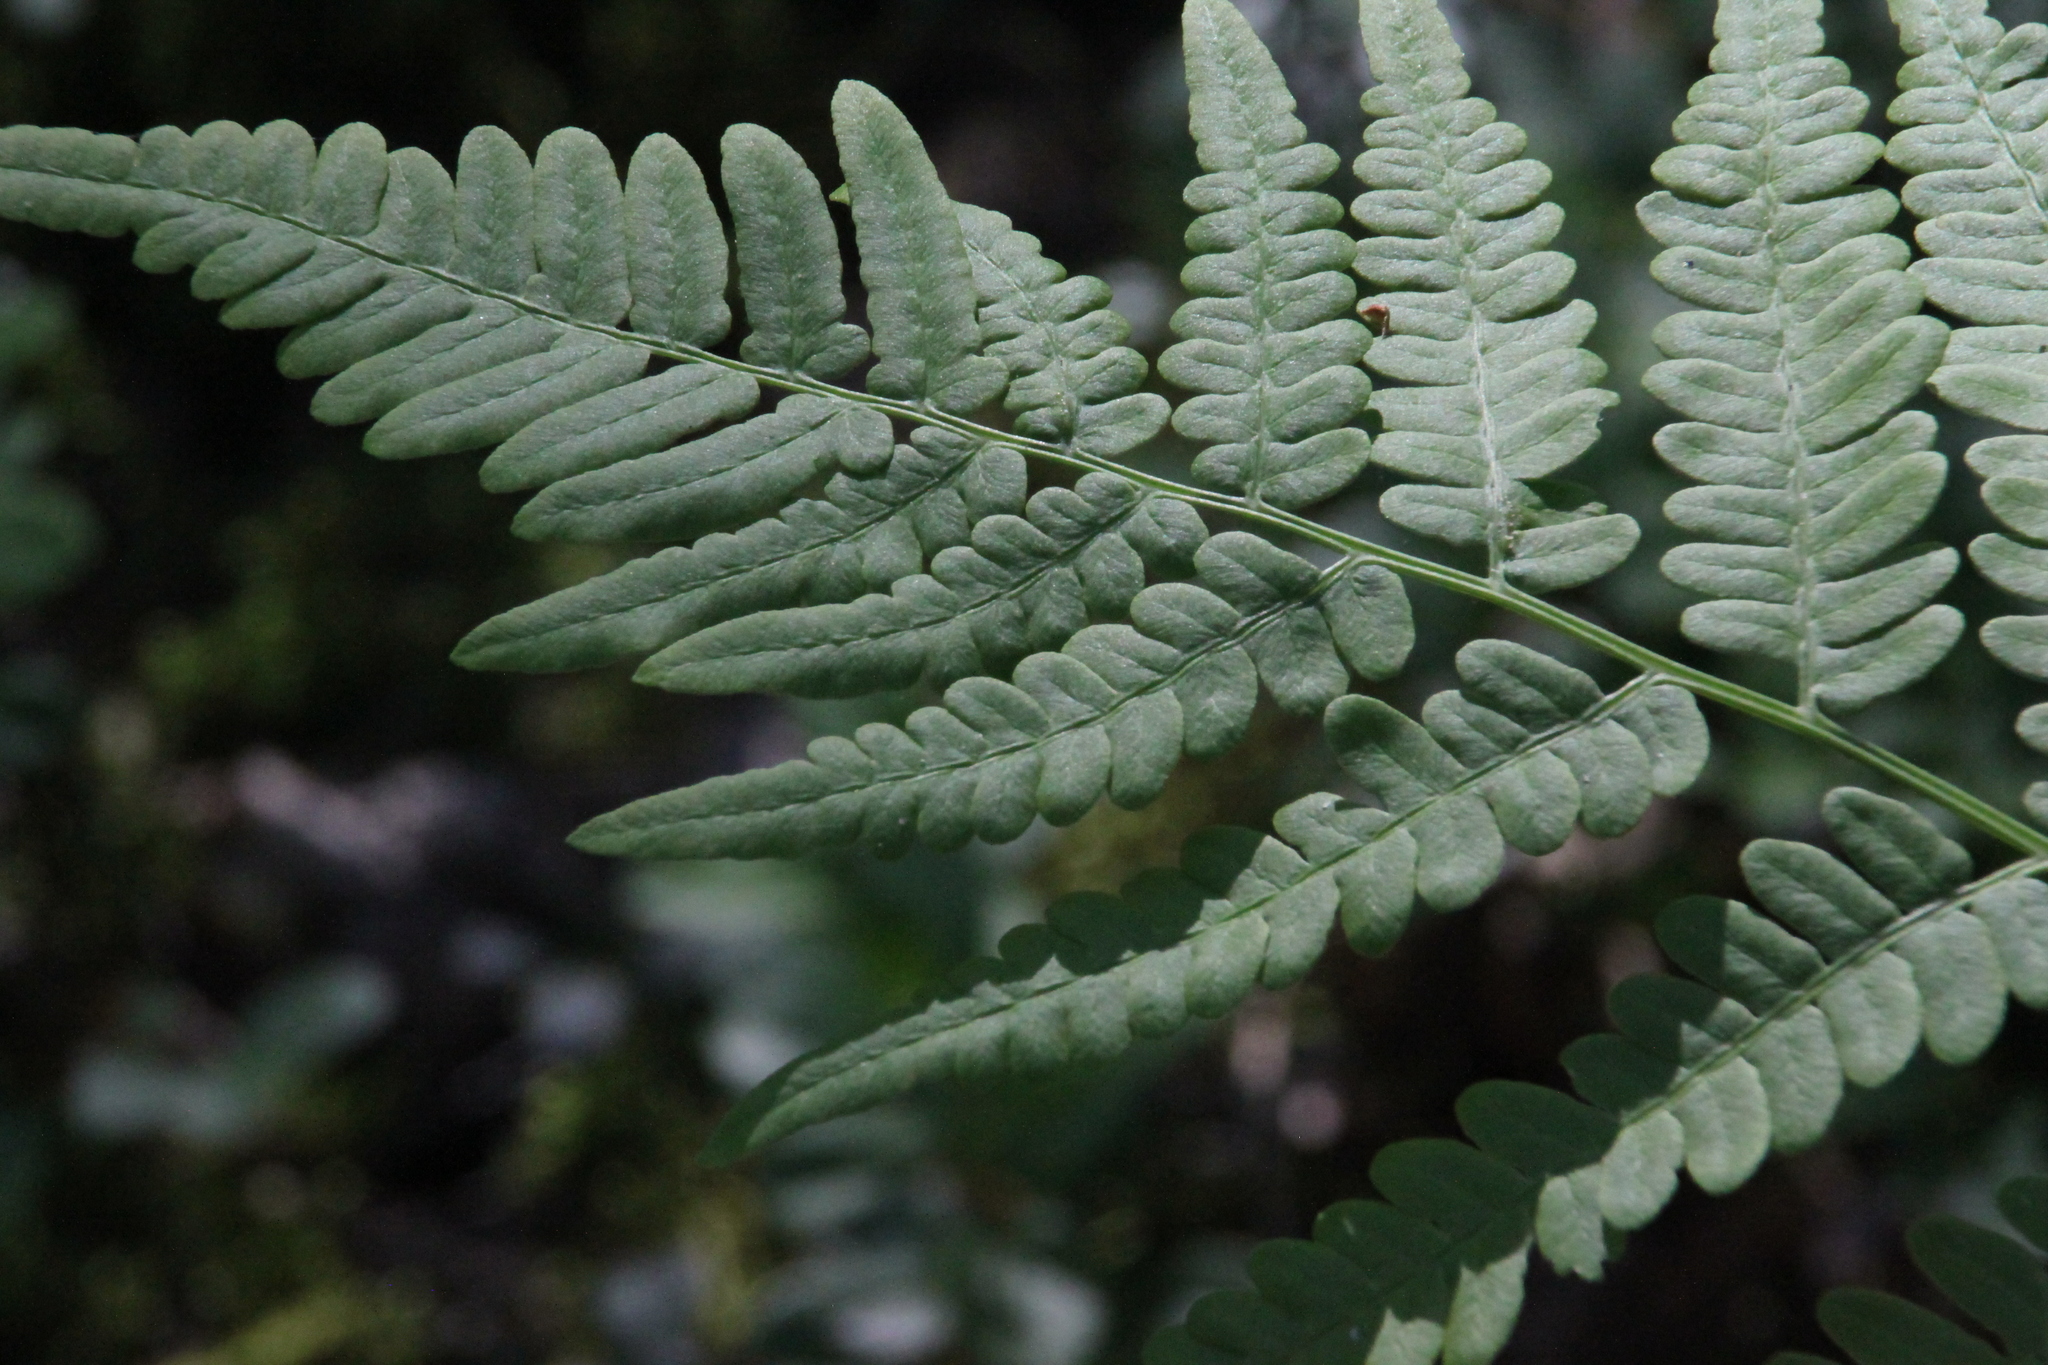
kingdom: Plantae
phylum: Tracheophyta
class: Polypodiopsida
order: Polypodiales
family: Dennstaedtiaceae
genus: Pteridium
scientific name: Pteridium aquilinum
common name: Bracken
